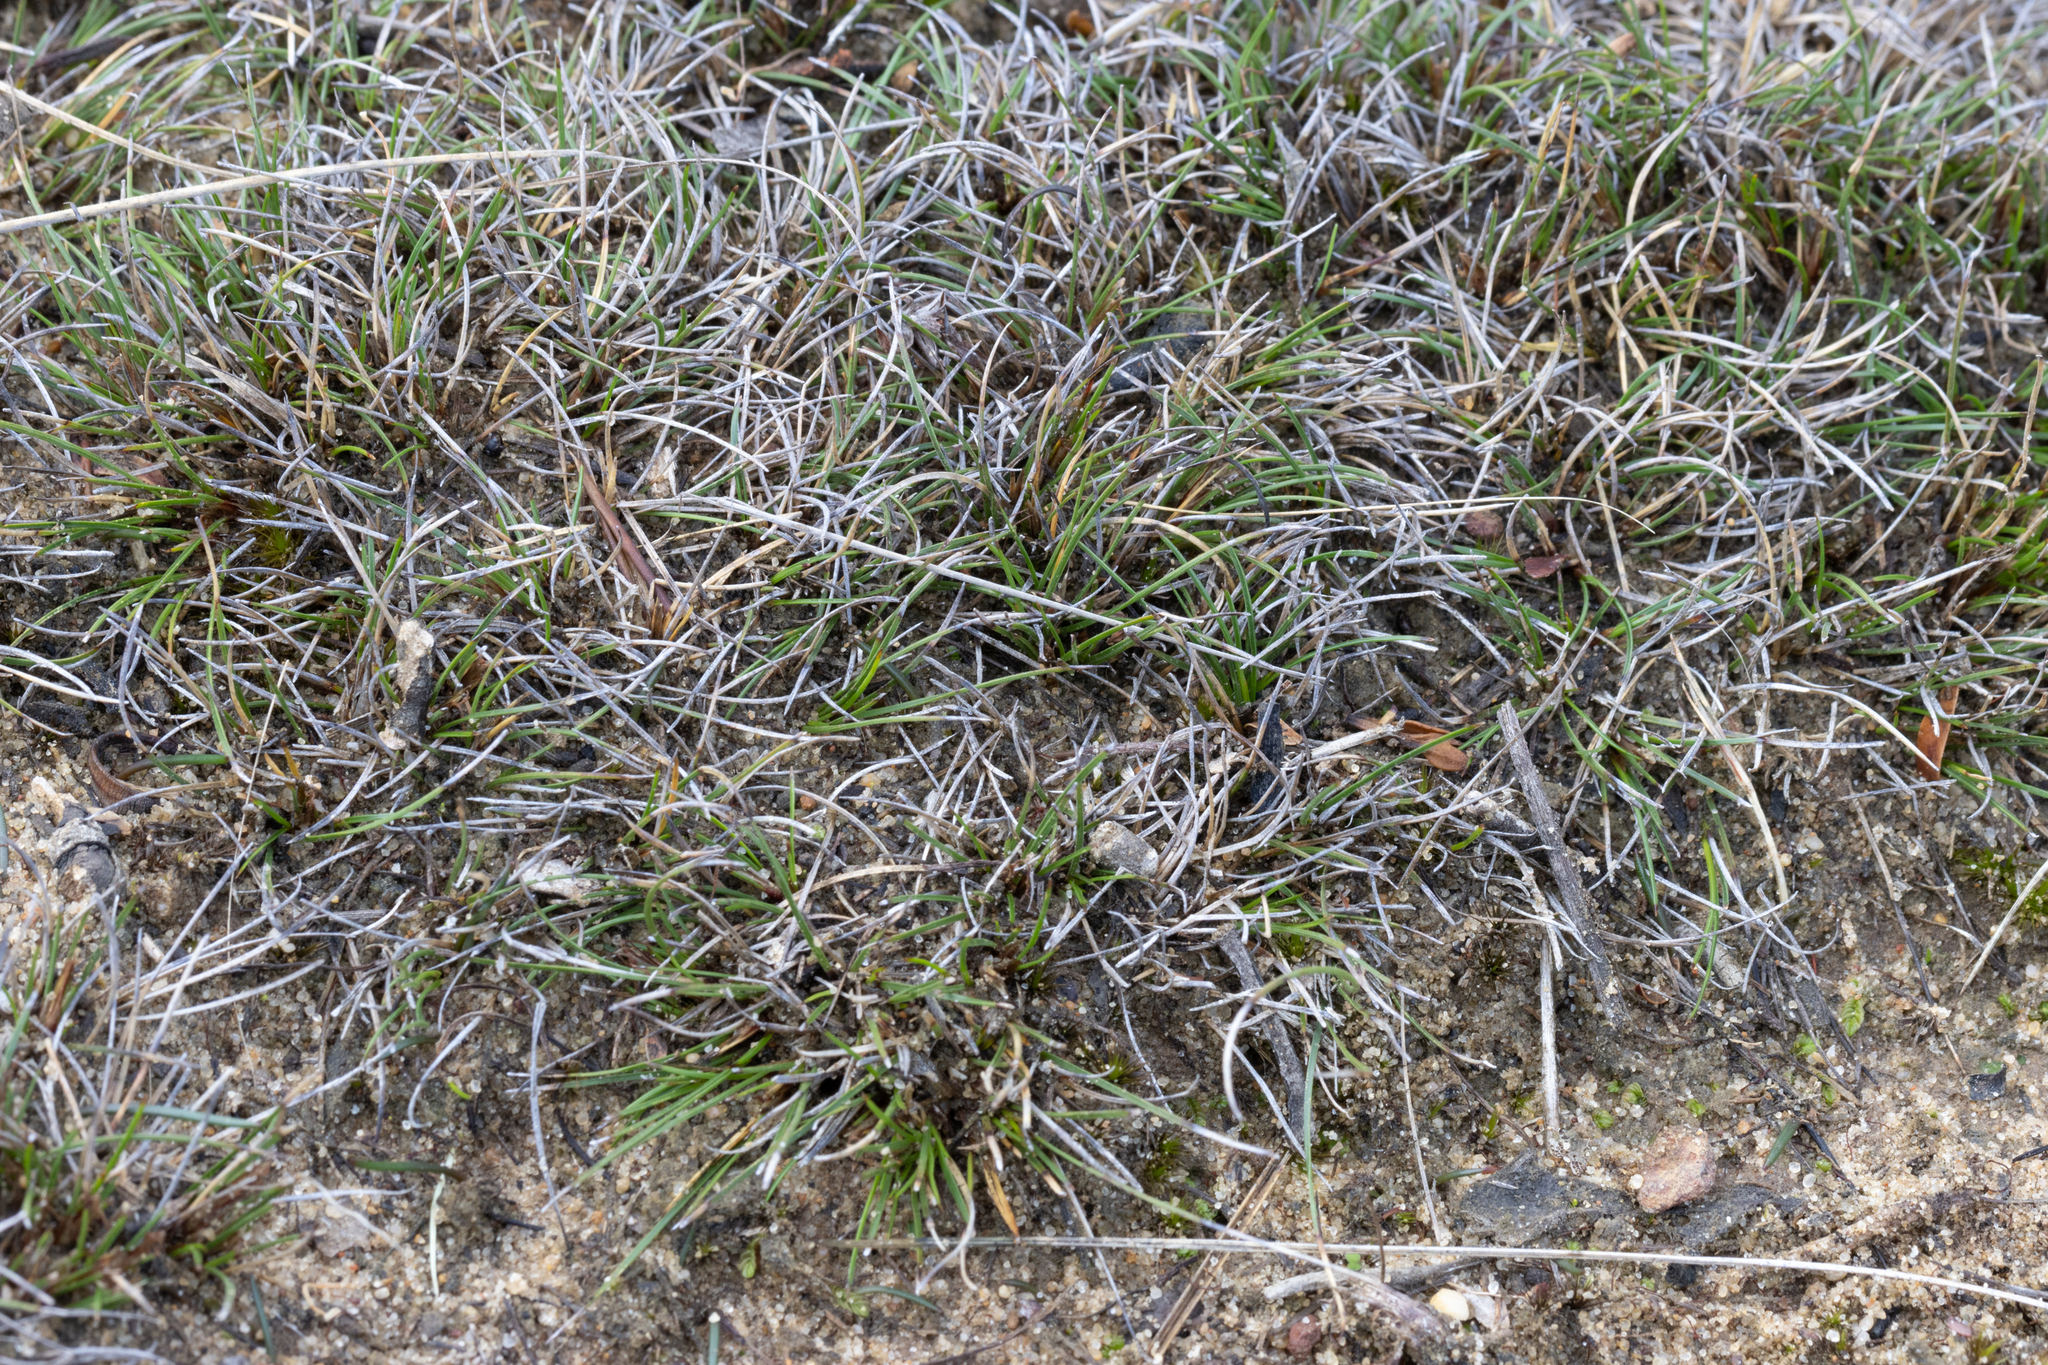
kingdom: Plantae
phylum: Tracheophyta
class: Liliopsida
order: Poales
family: Cyperaceae
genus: Schoenus
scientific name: Schoenus breviculmis
